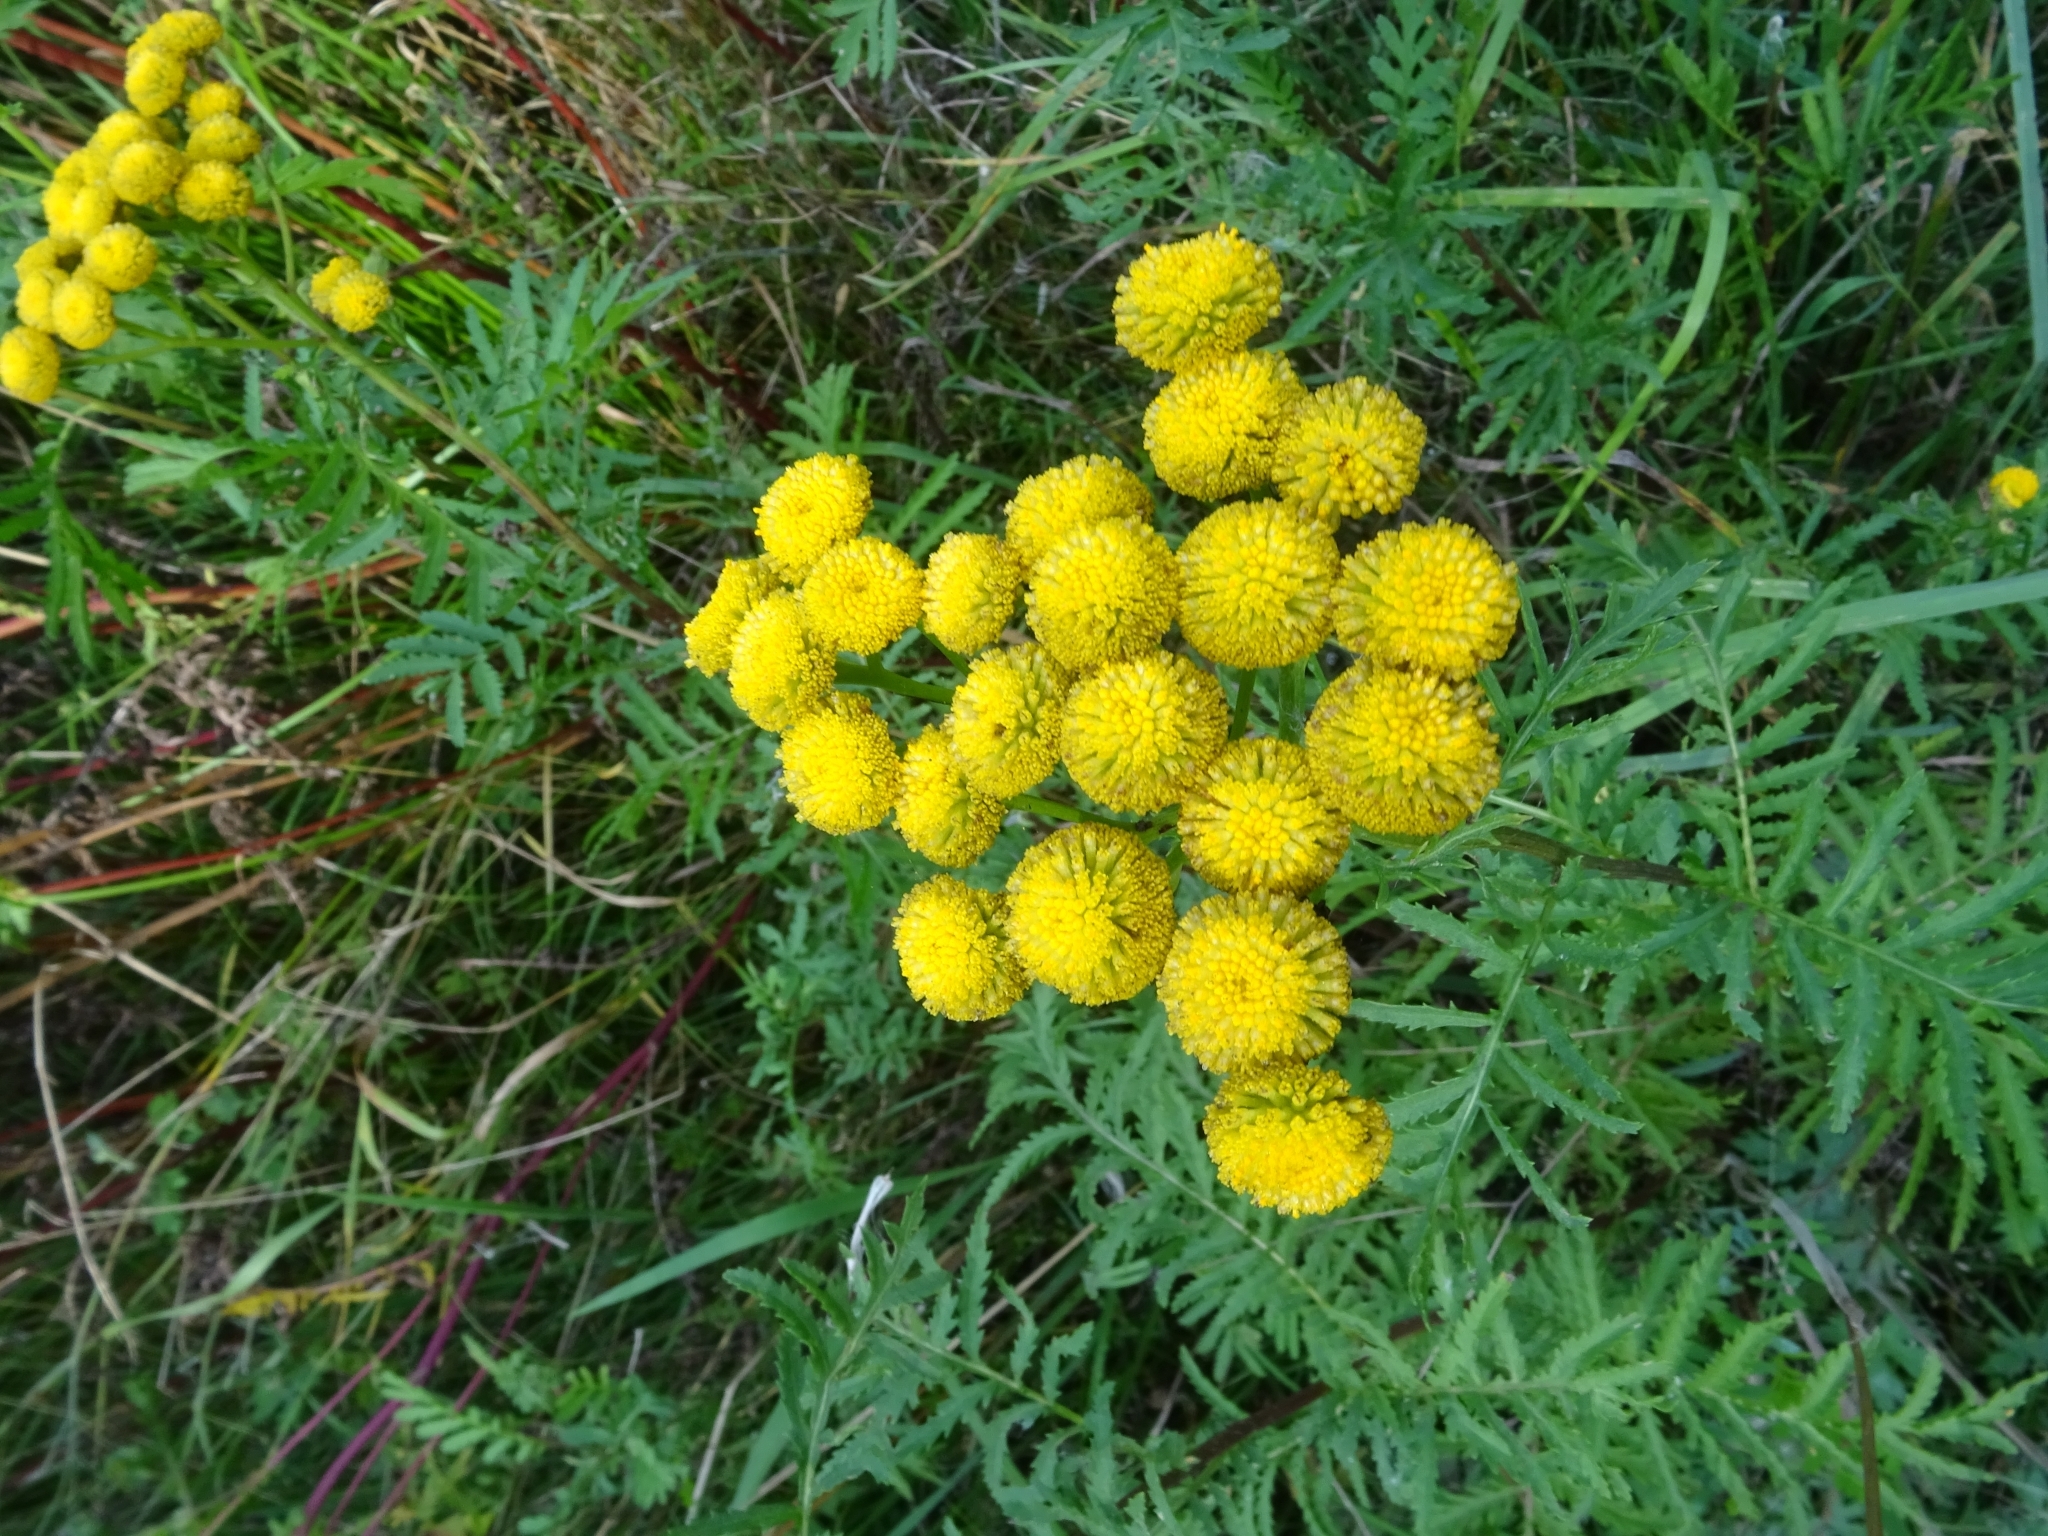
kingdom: Plantae
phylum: Tracheophyta
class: Magnoliopsida
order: Asterales
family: Asteraceae
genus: Tanacetum
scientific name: Tanacetum vulgare
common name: Common tansy
